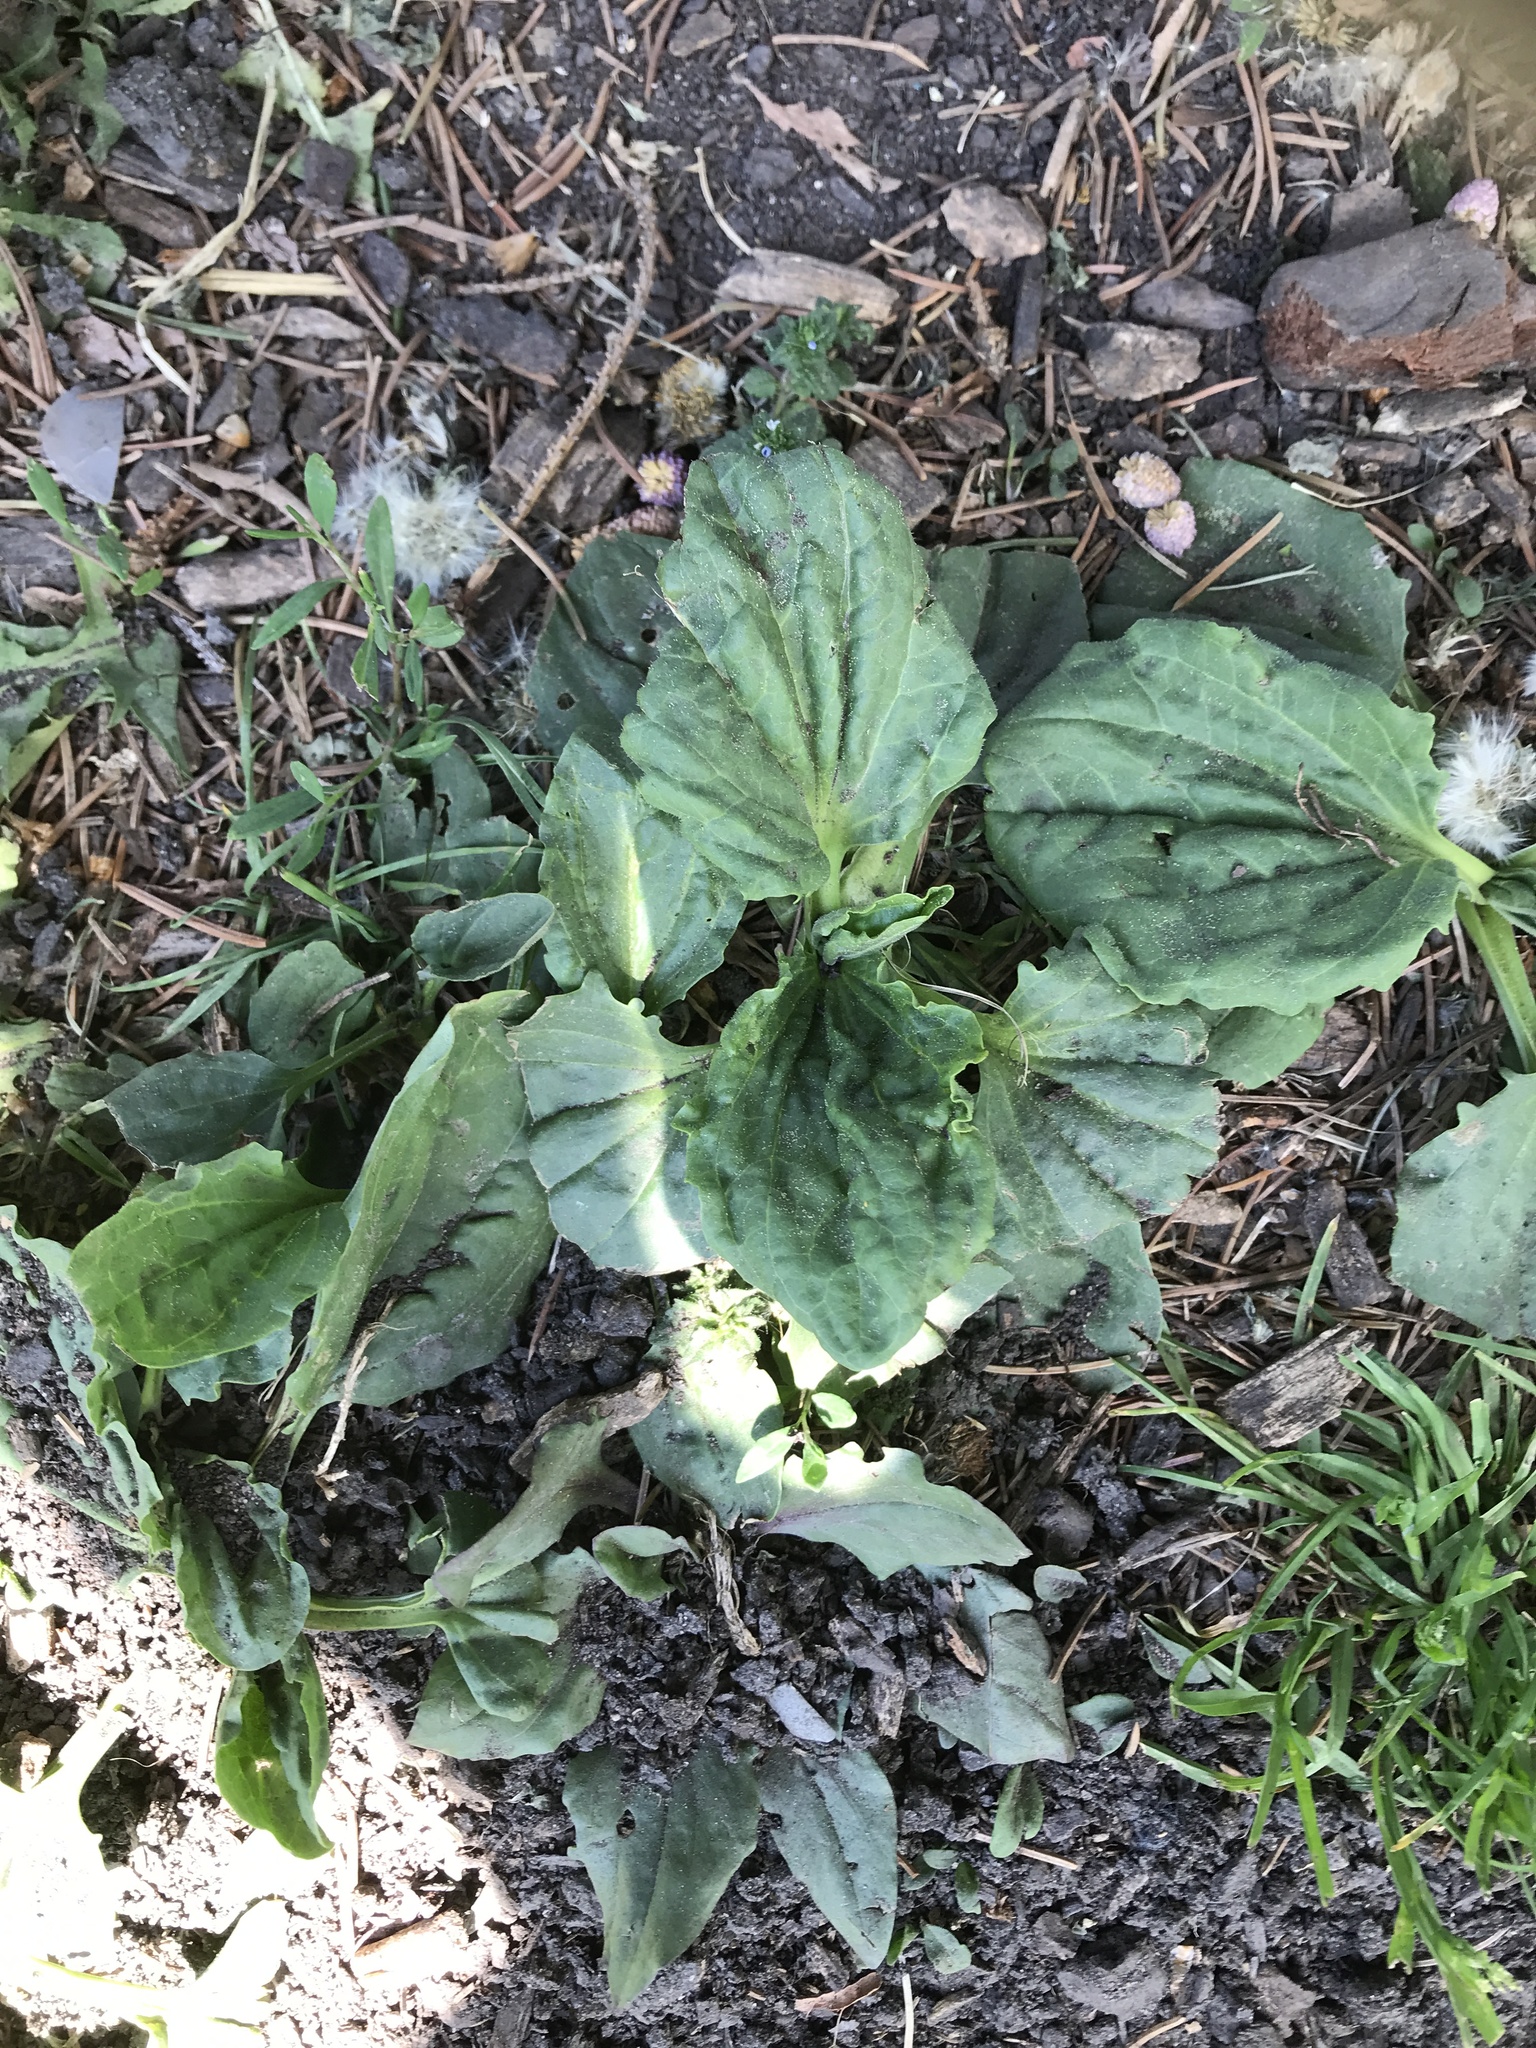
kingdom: Plantae
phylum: Tracheophyta
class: Magnoliopsida
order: Lamiales
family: Plantaginaceae
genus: Plantago
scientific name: Plantago major
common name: Common plantain
